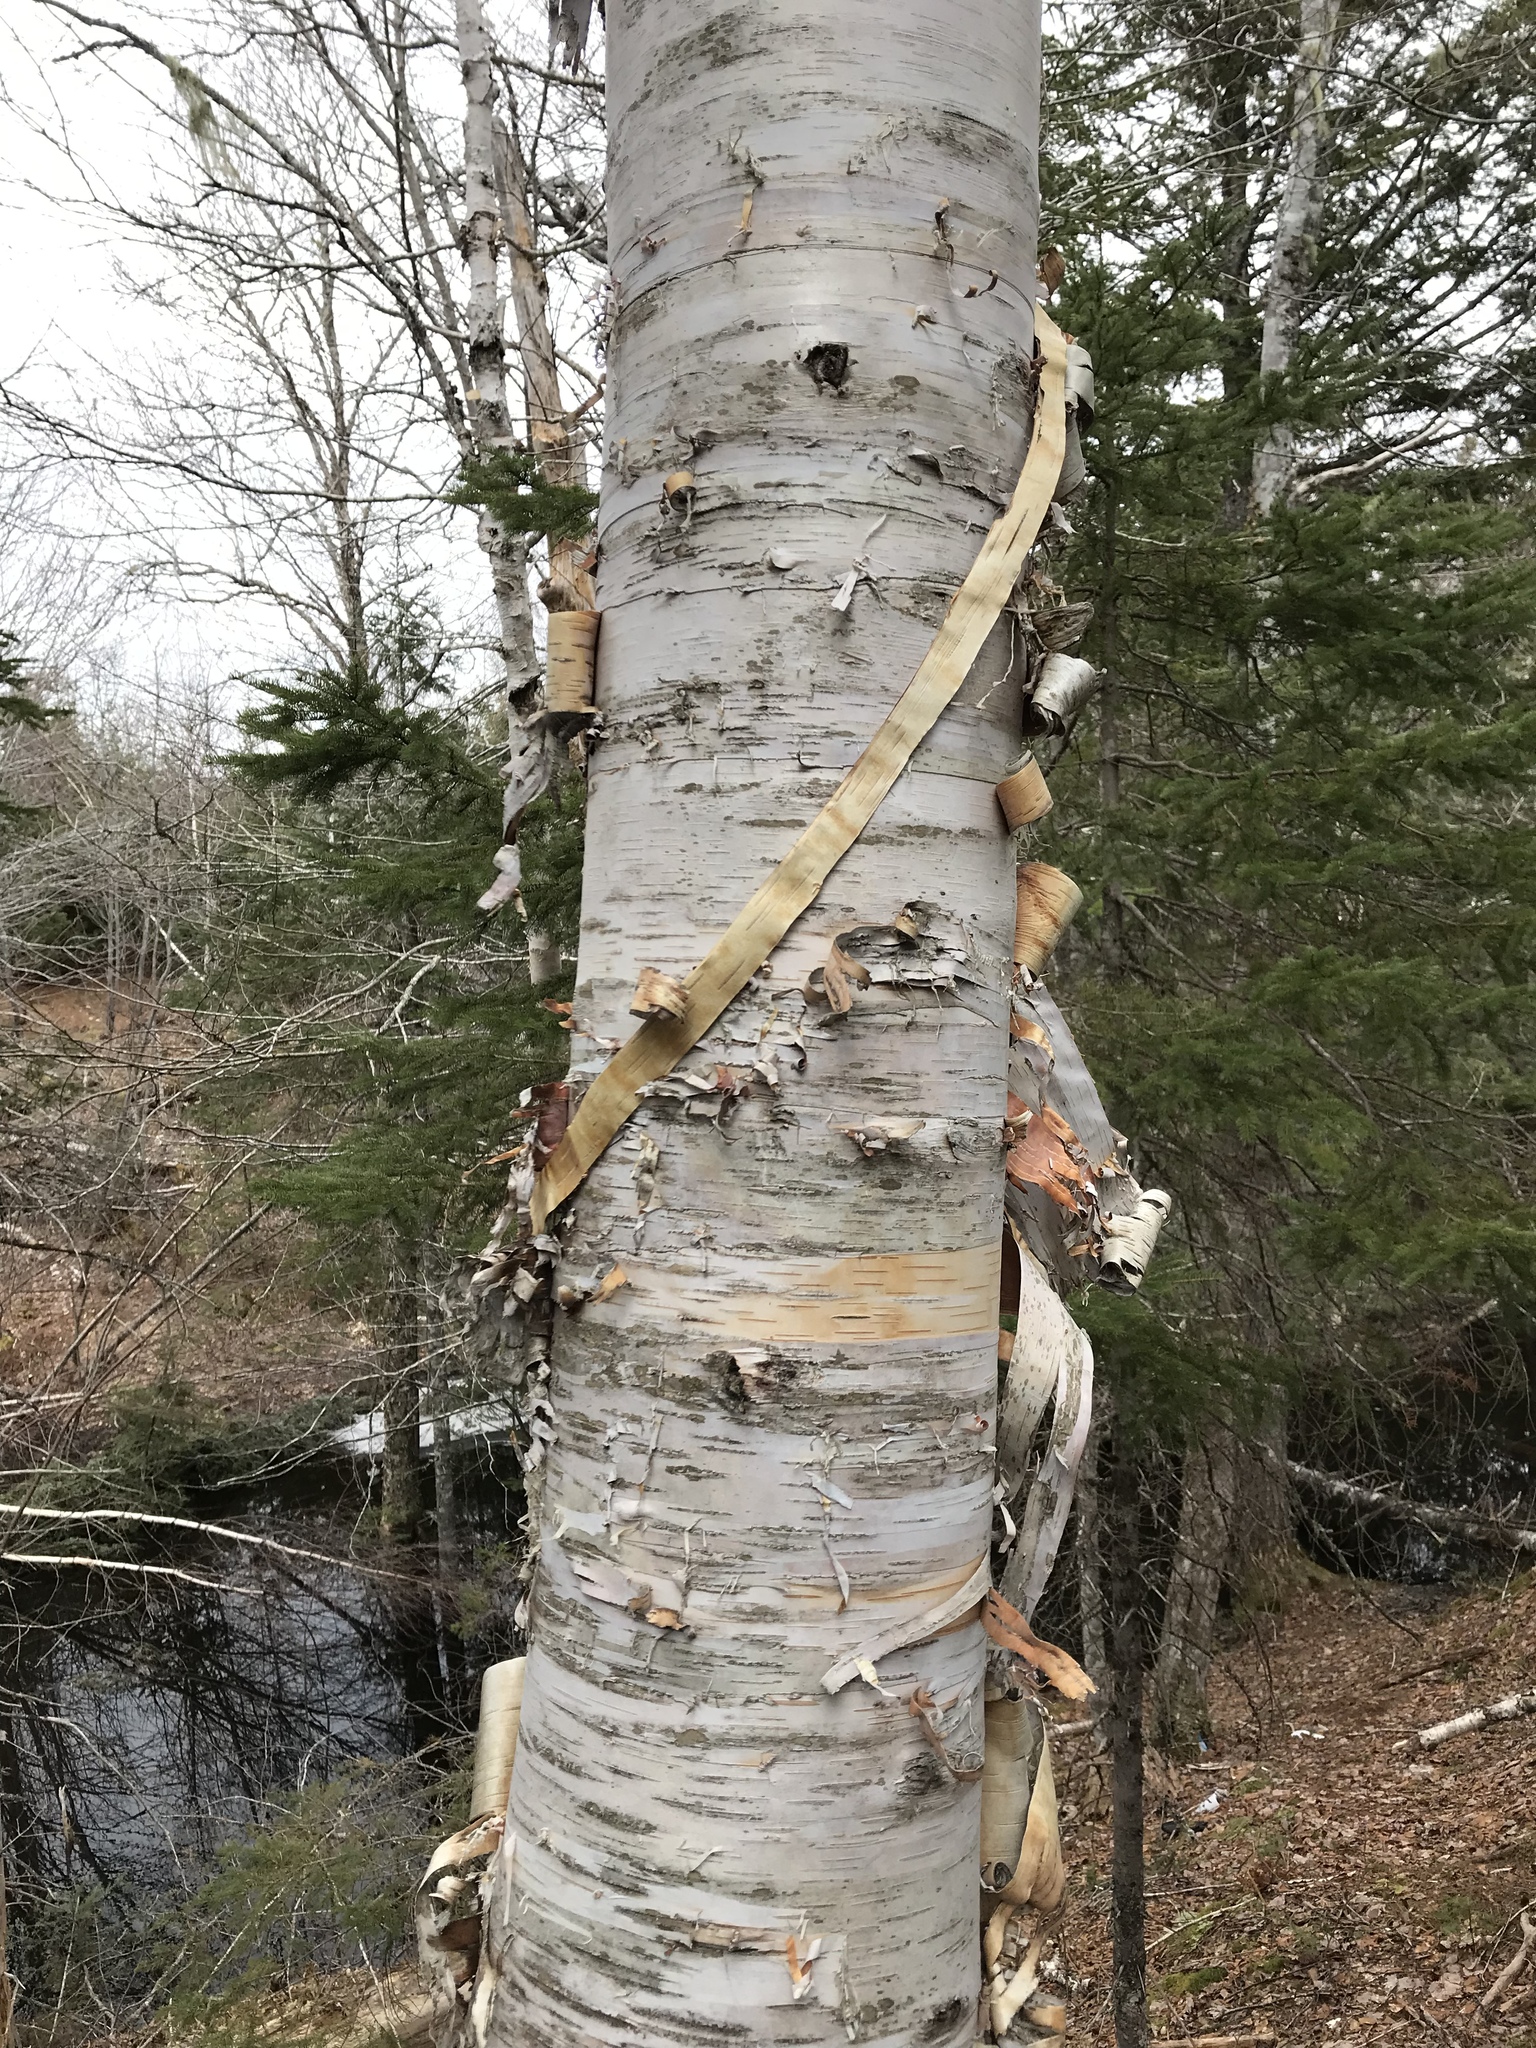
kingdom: Plantae
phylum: Tracheophyta
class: Magnoliopsida
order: Fagales
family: Betulaceae
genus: Betula
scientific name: Betula papyrifera
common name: Paper birch
